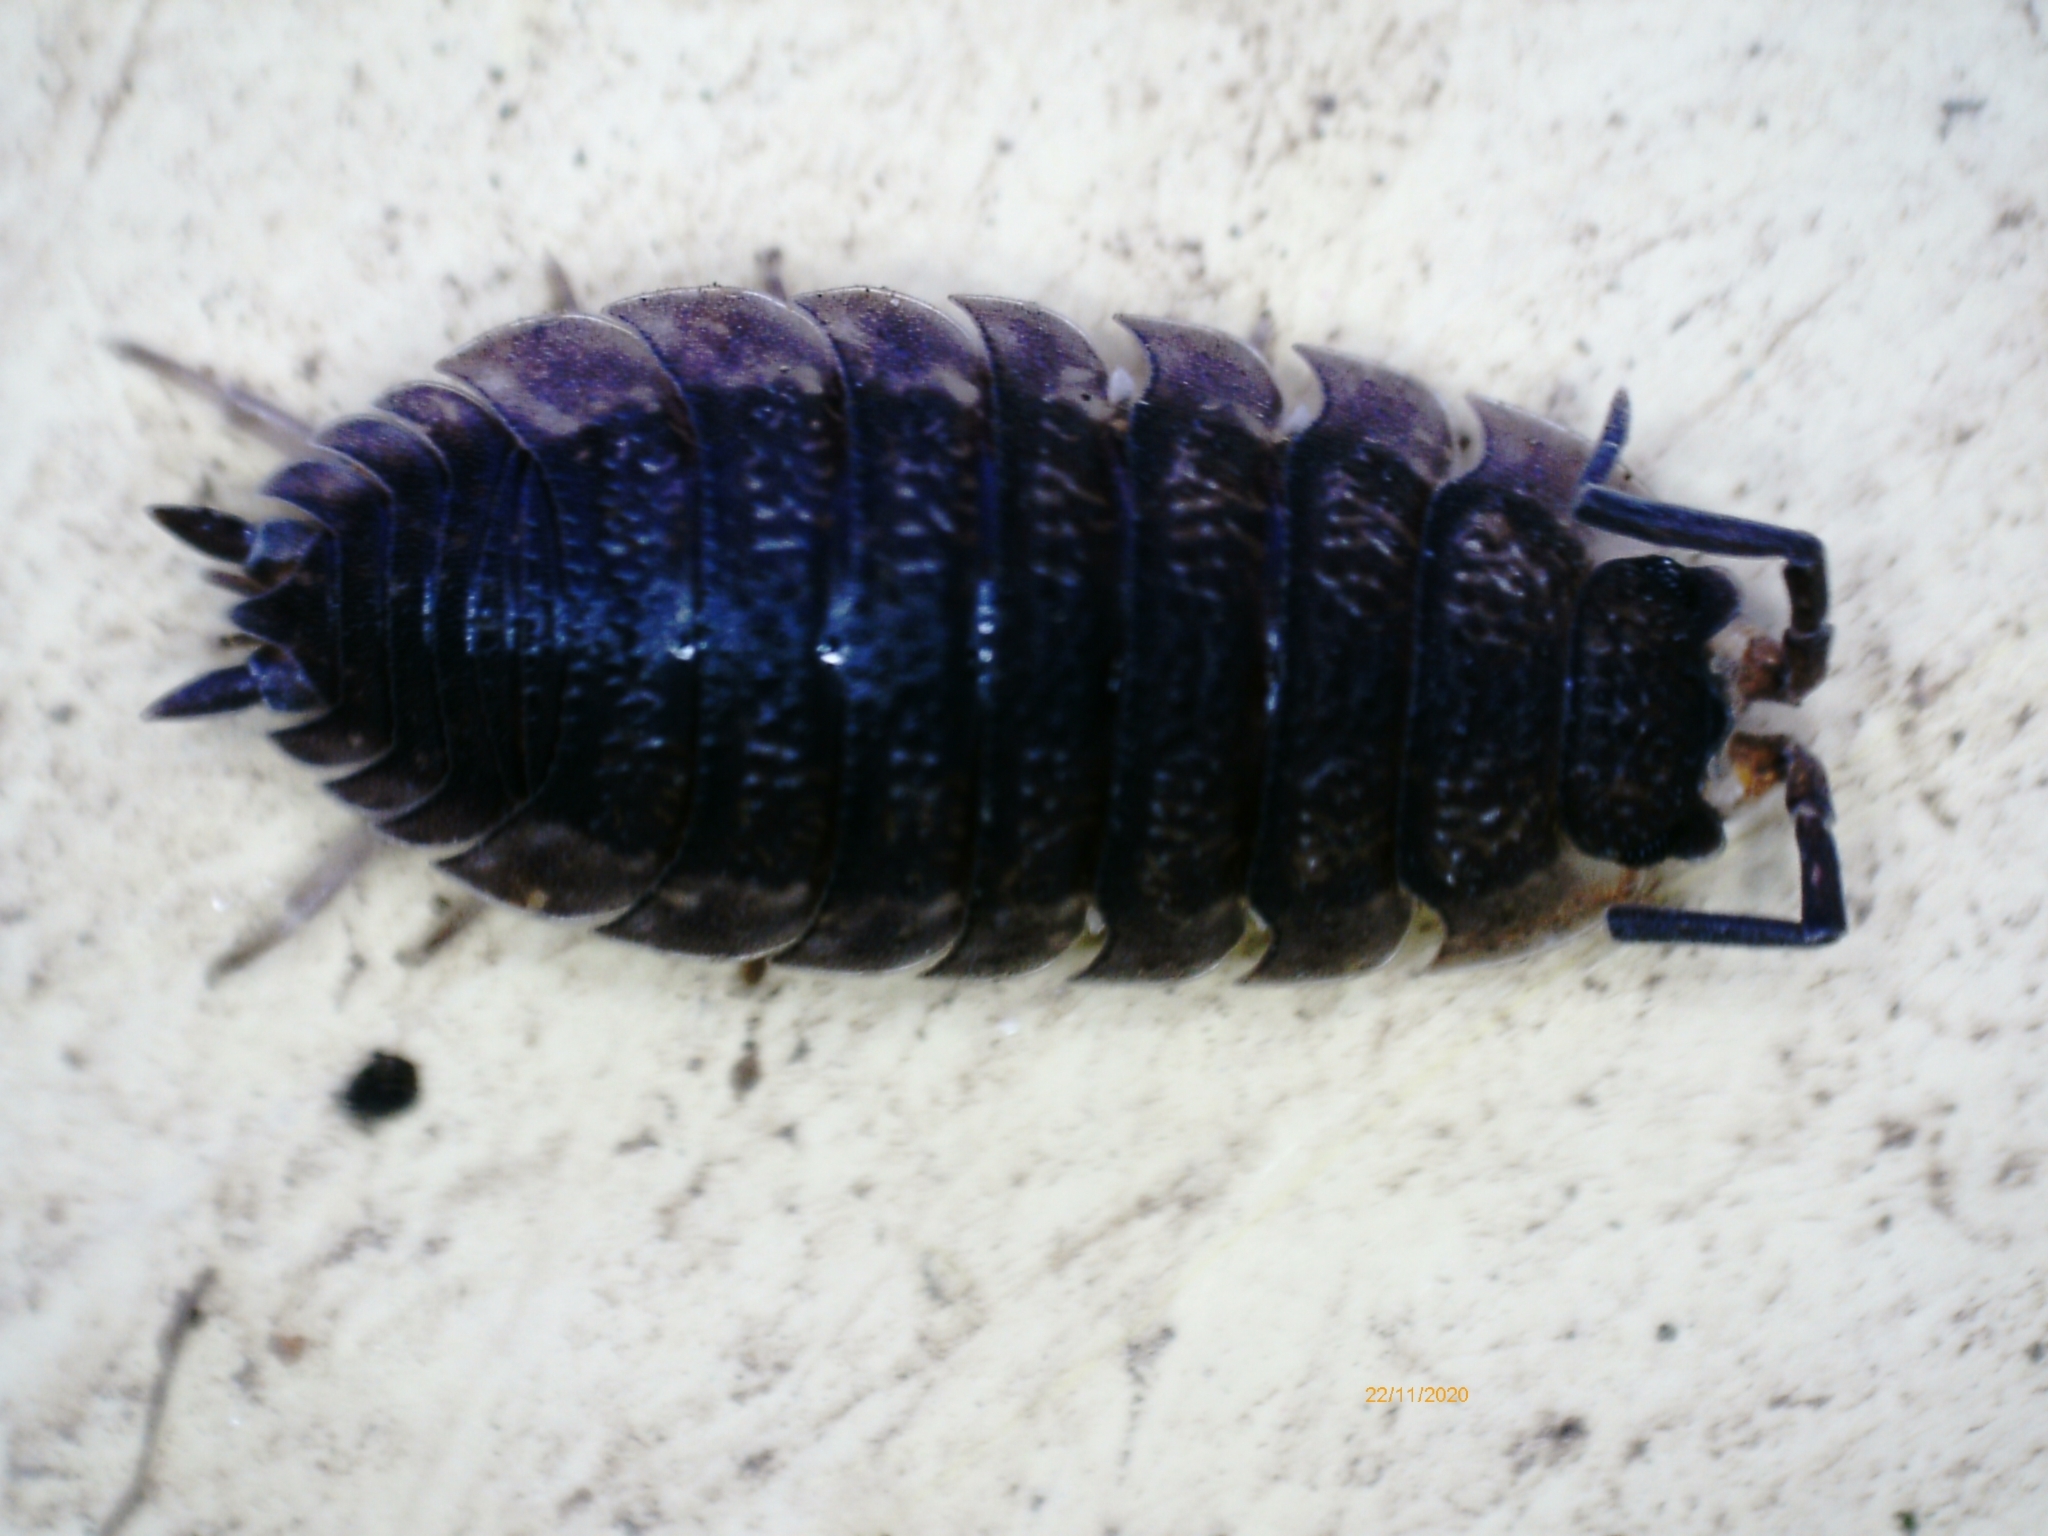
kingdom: Animalia
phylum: Arthropoda
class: Malacostraca
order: Isopoda
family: Porcellionidae
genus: Porcellio
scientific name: Porcellio scaber
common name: Common rough woodlouse
